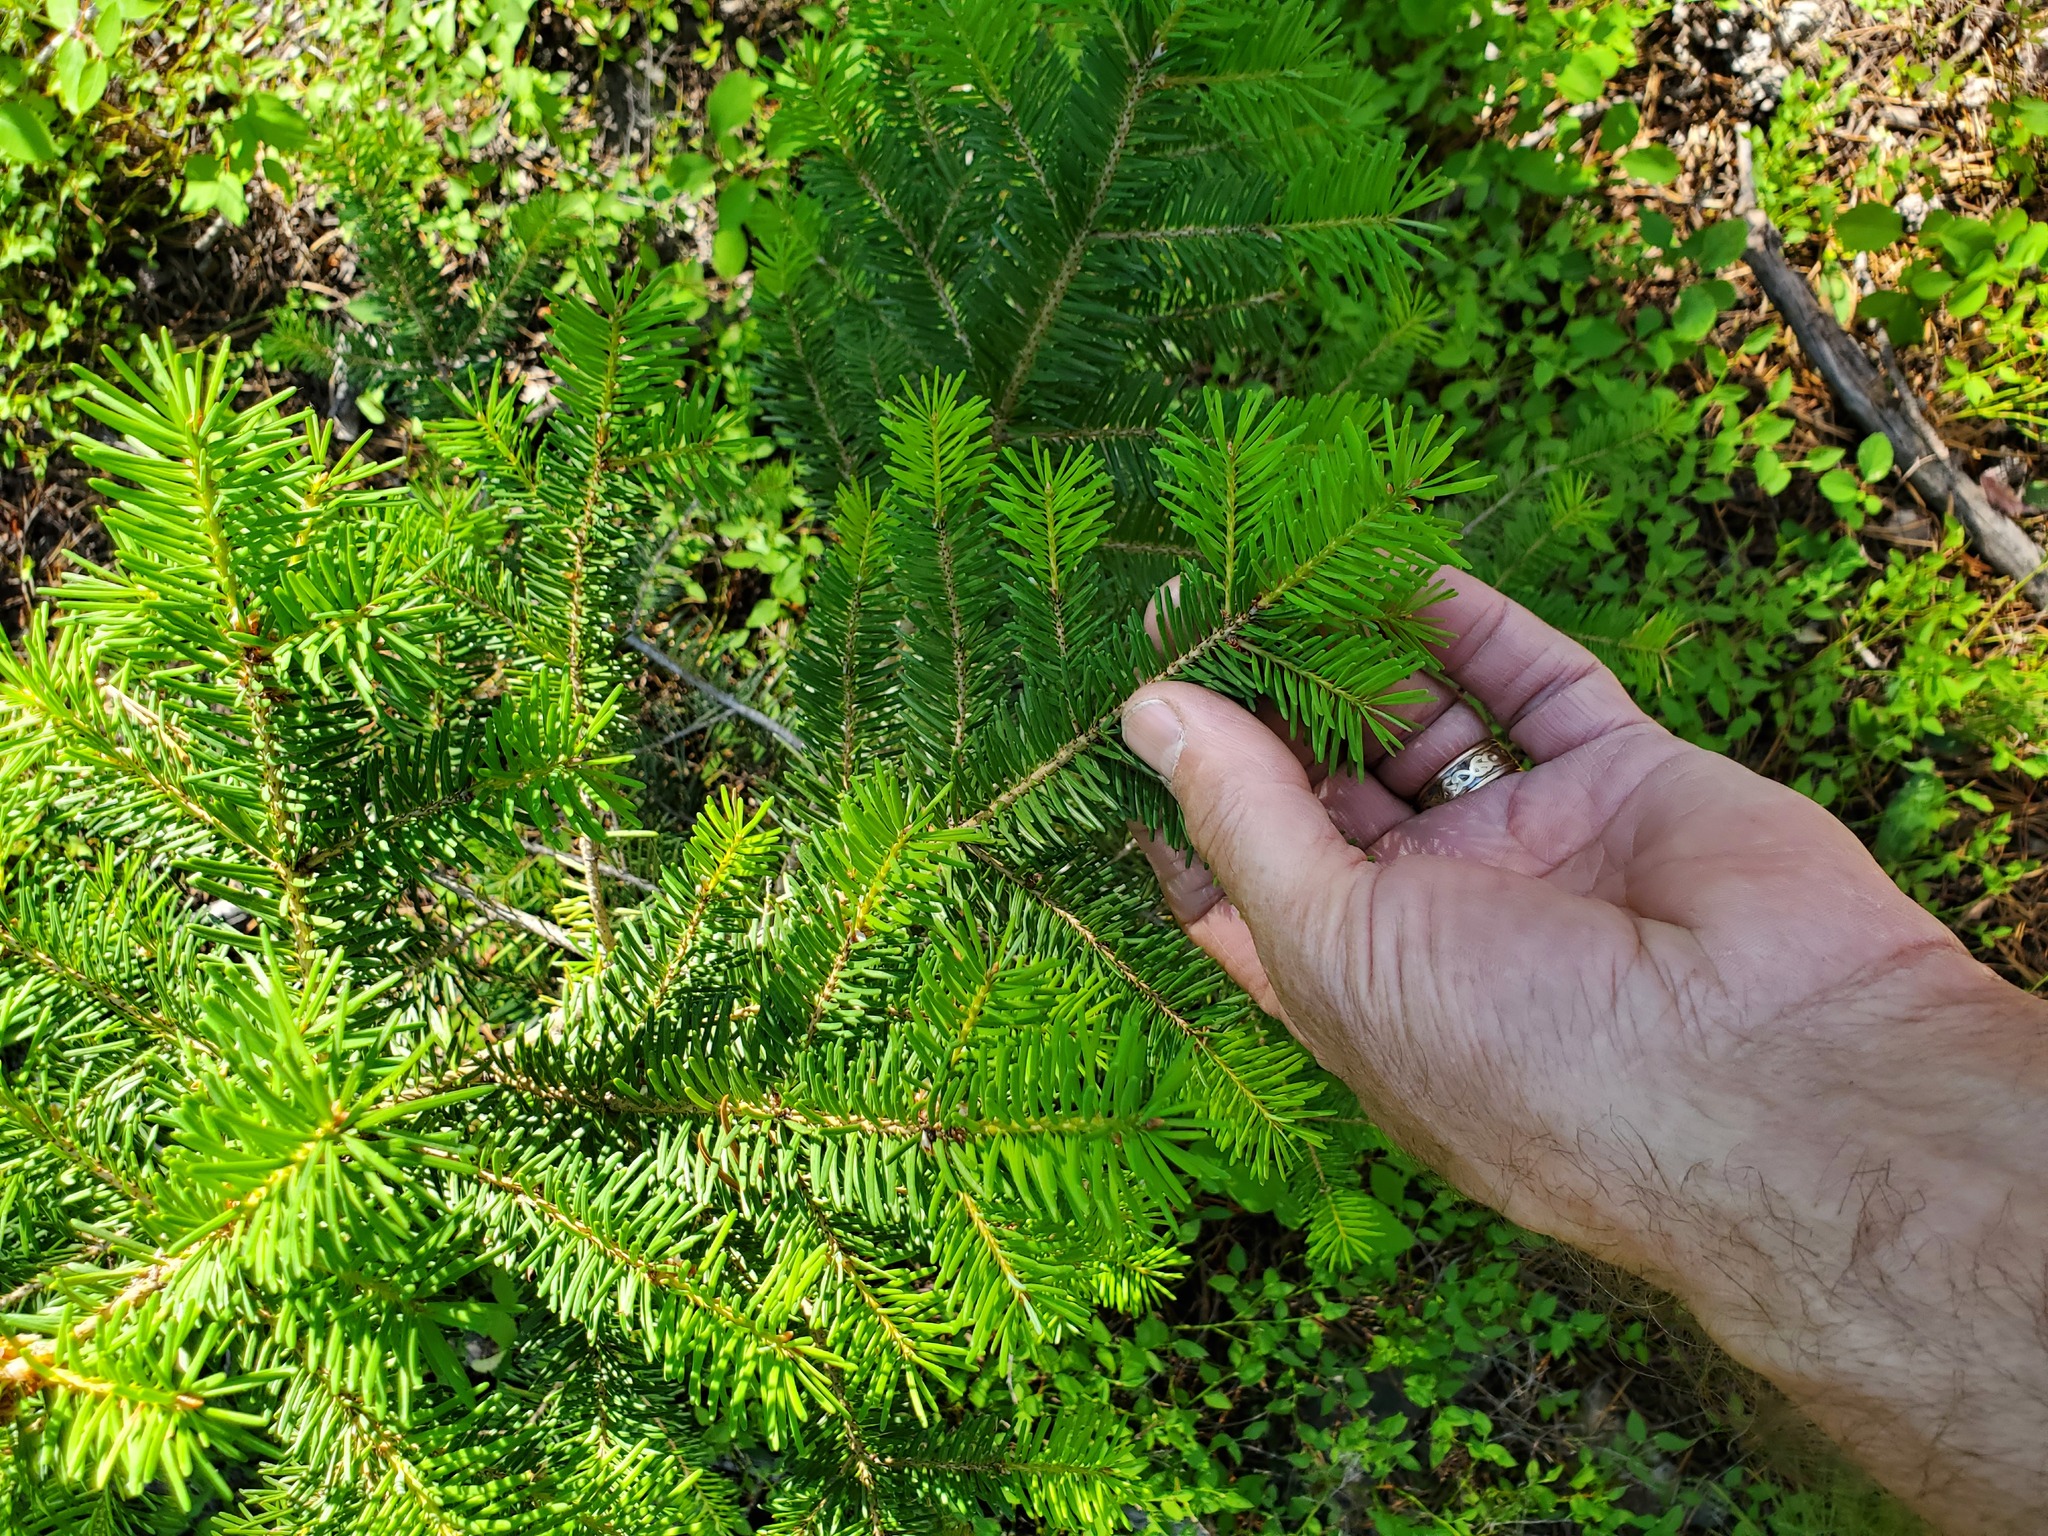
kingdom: Plantae
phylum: Tracheophyta
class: Pinopsida
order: Pinales
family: Pinaceae
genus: Pseudotsuga
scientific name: Pseudotsuga menziesii
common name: Douglas fir
